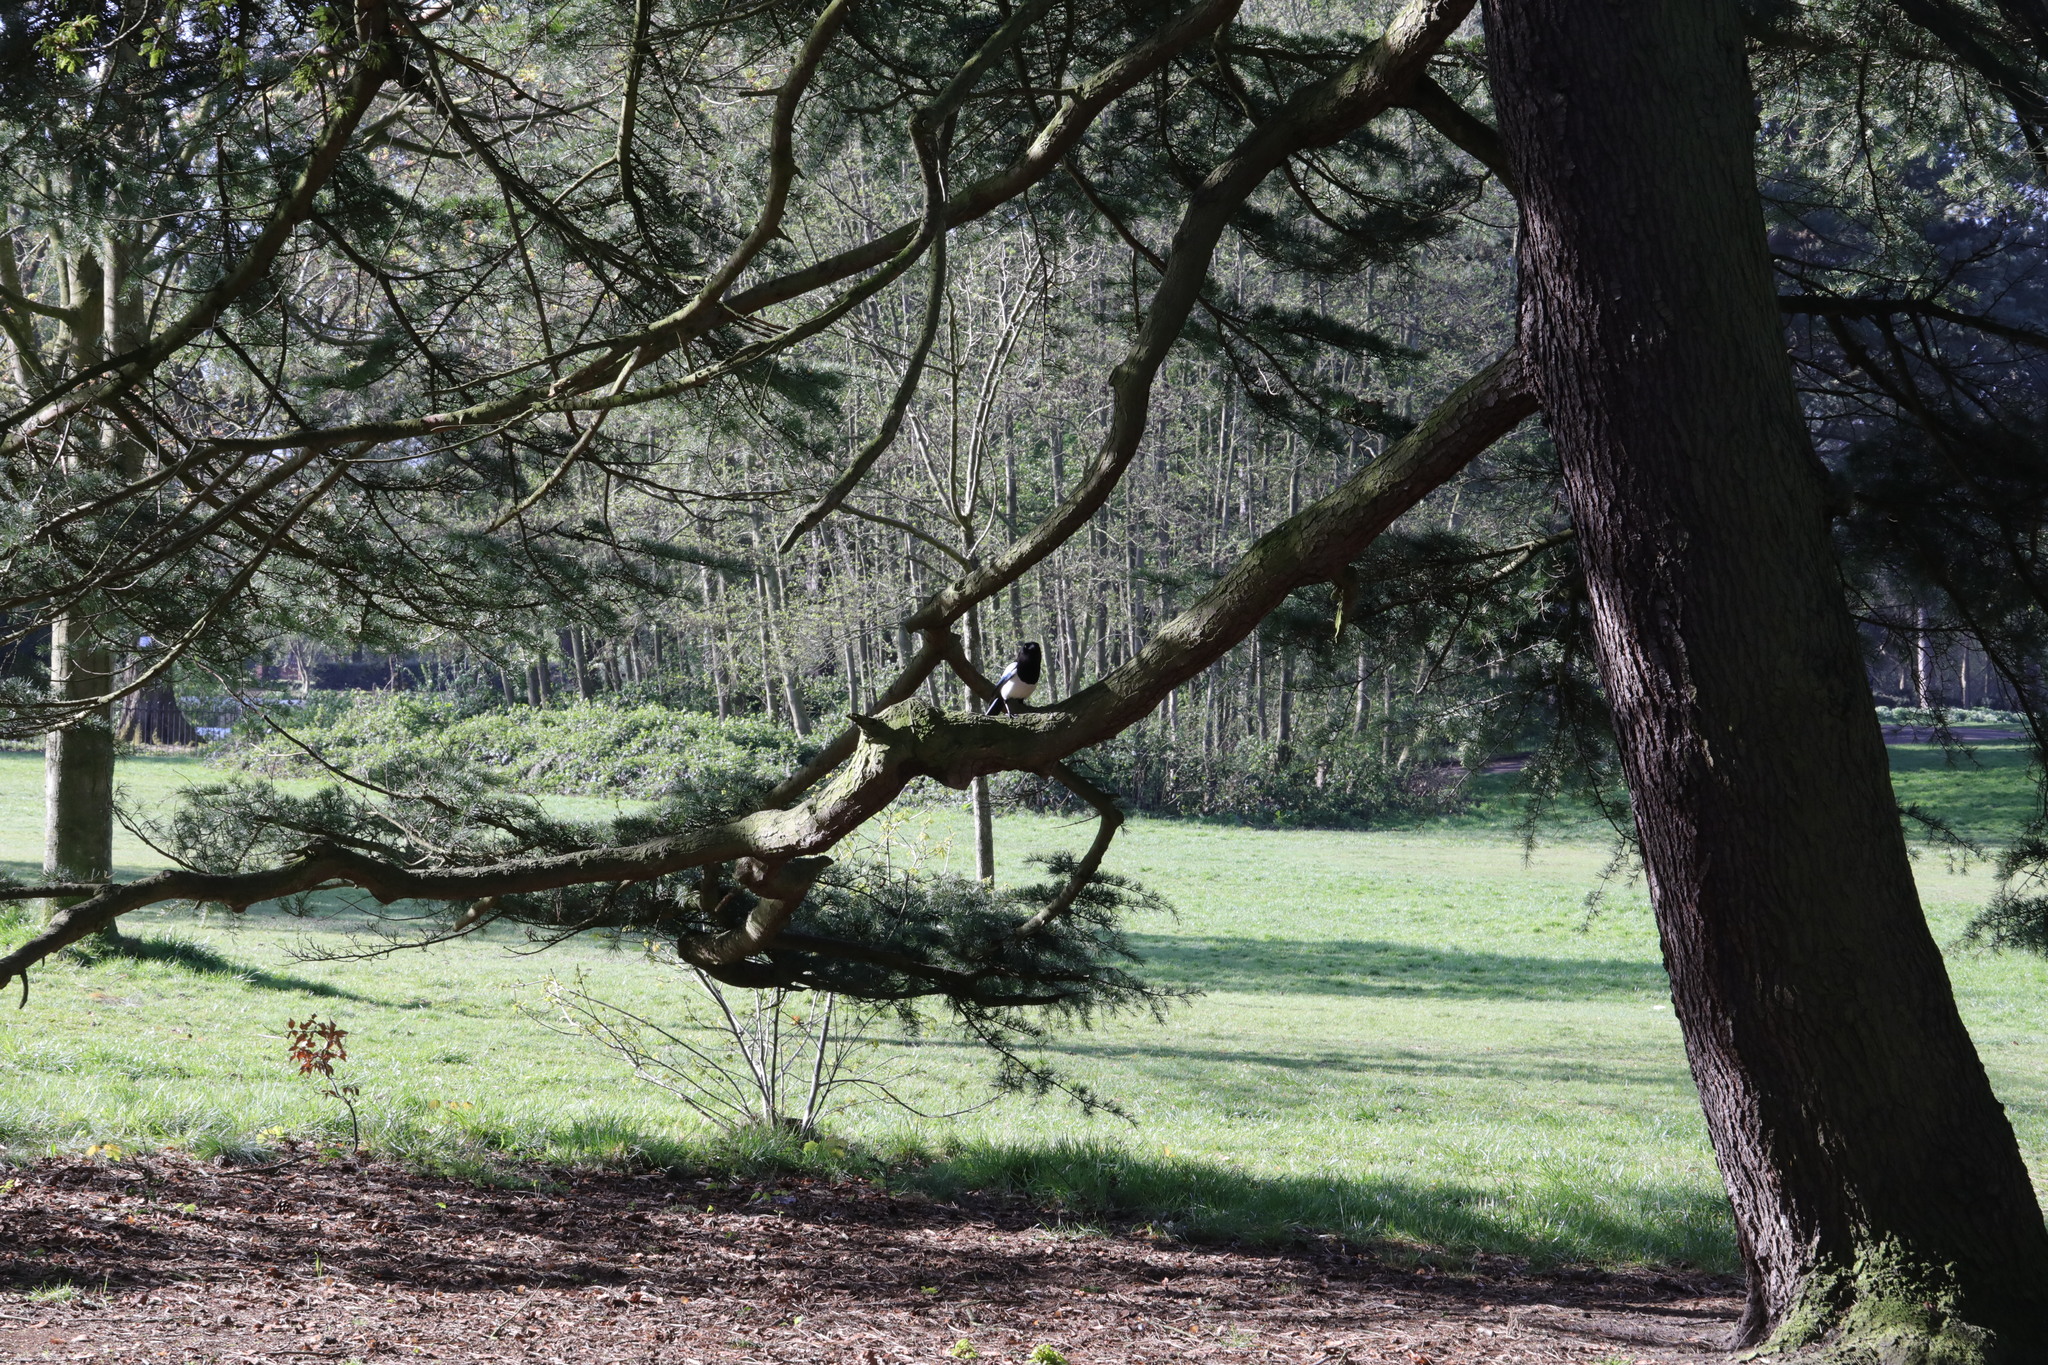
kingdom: Animalia
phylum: Chordata
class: Aves
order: Passeriformes
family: Corvidae
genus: Pica
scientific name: Pica pica
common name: Eurasian magpie
